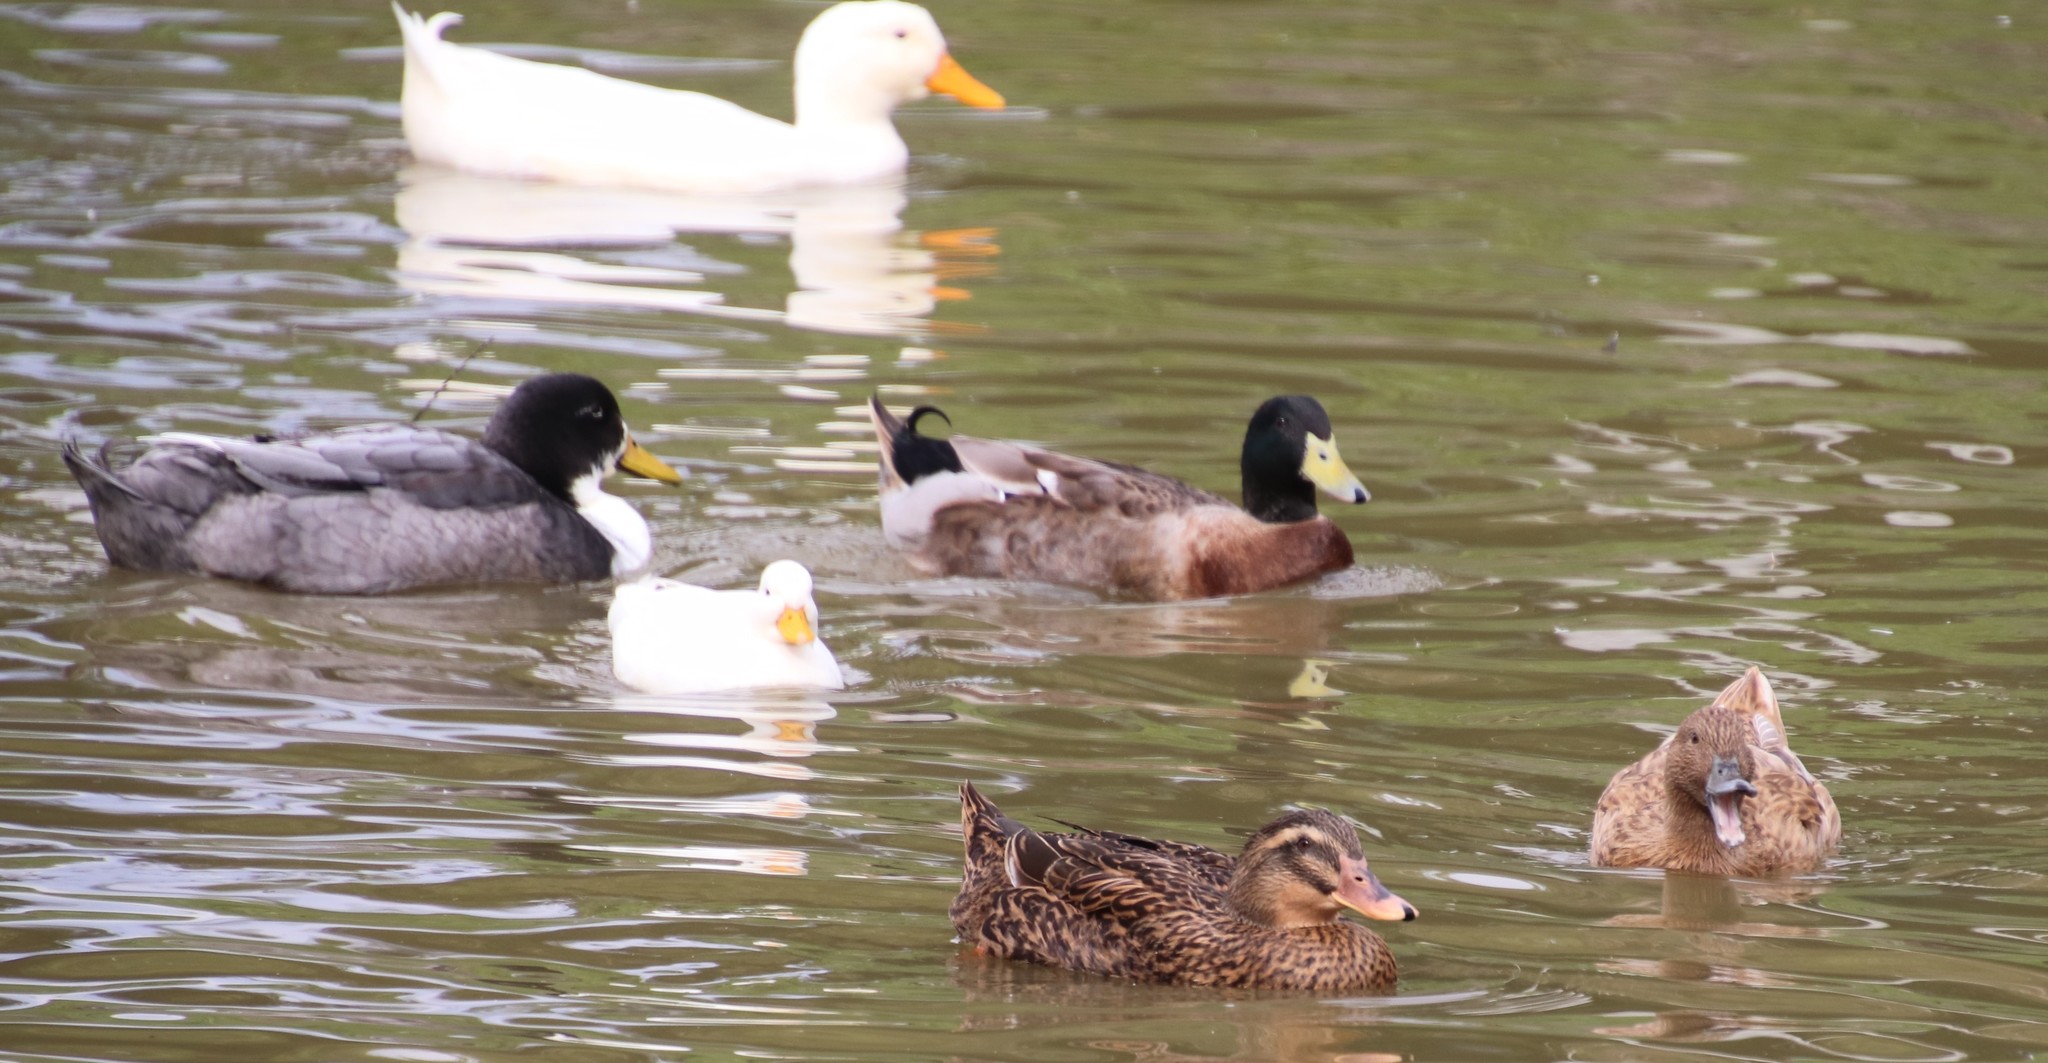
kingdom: Animalia
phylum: Chordata
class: Aves
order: Anseriformes
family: Anatidae
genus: Anas
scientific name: Anas platyrhynchos
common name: Mallard
